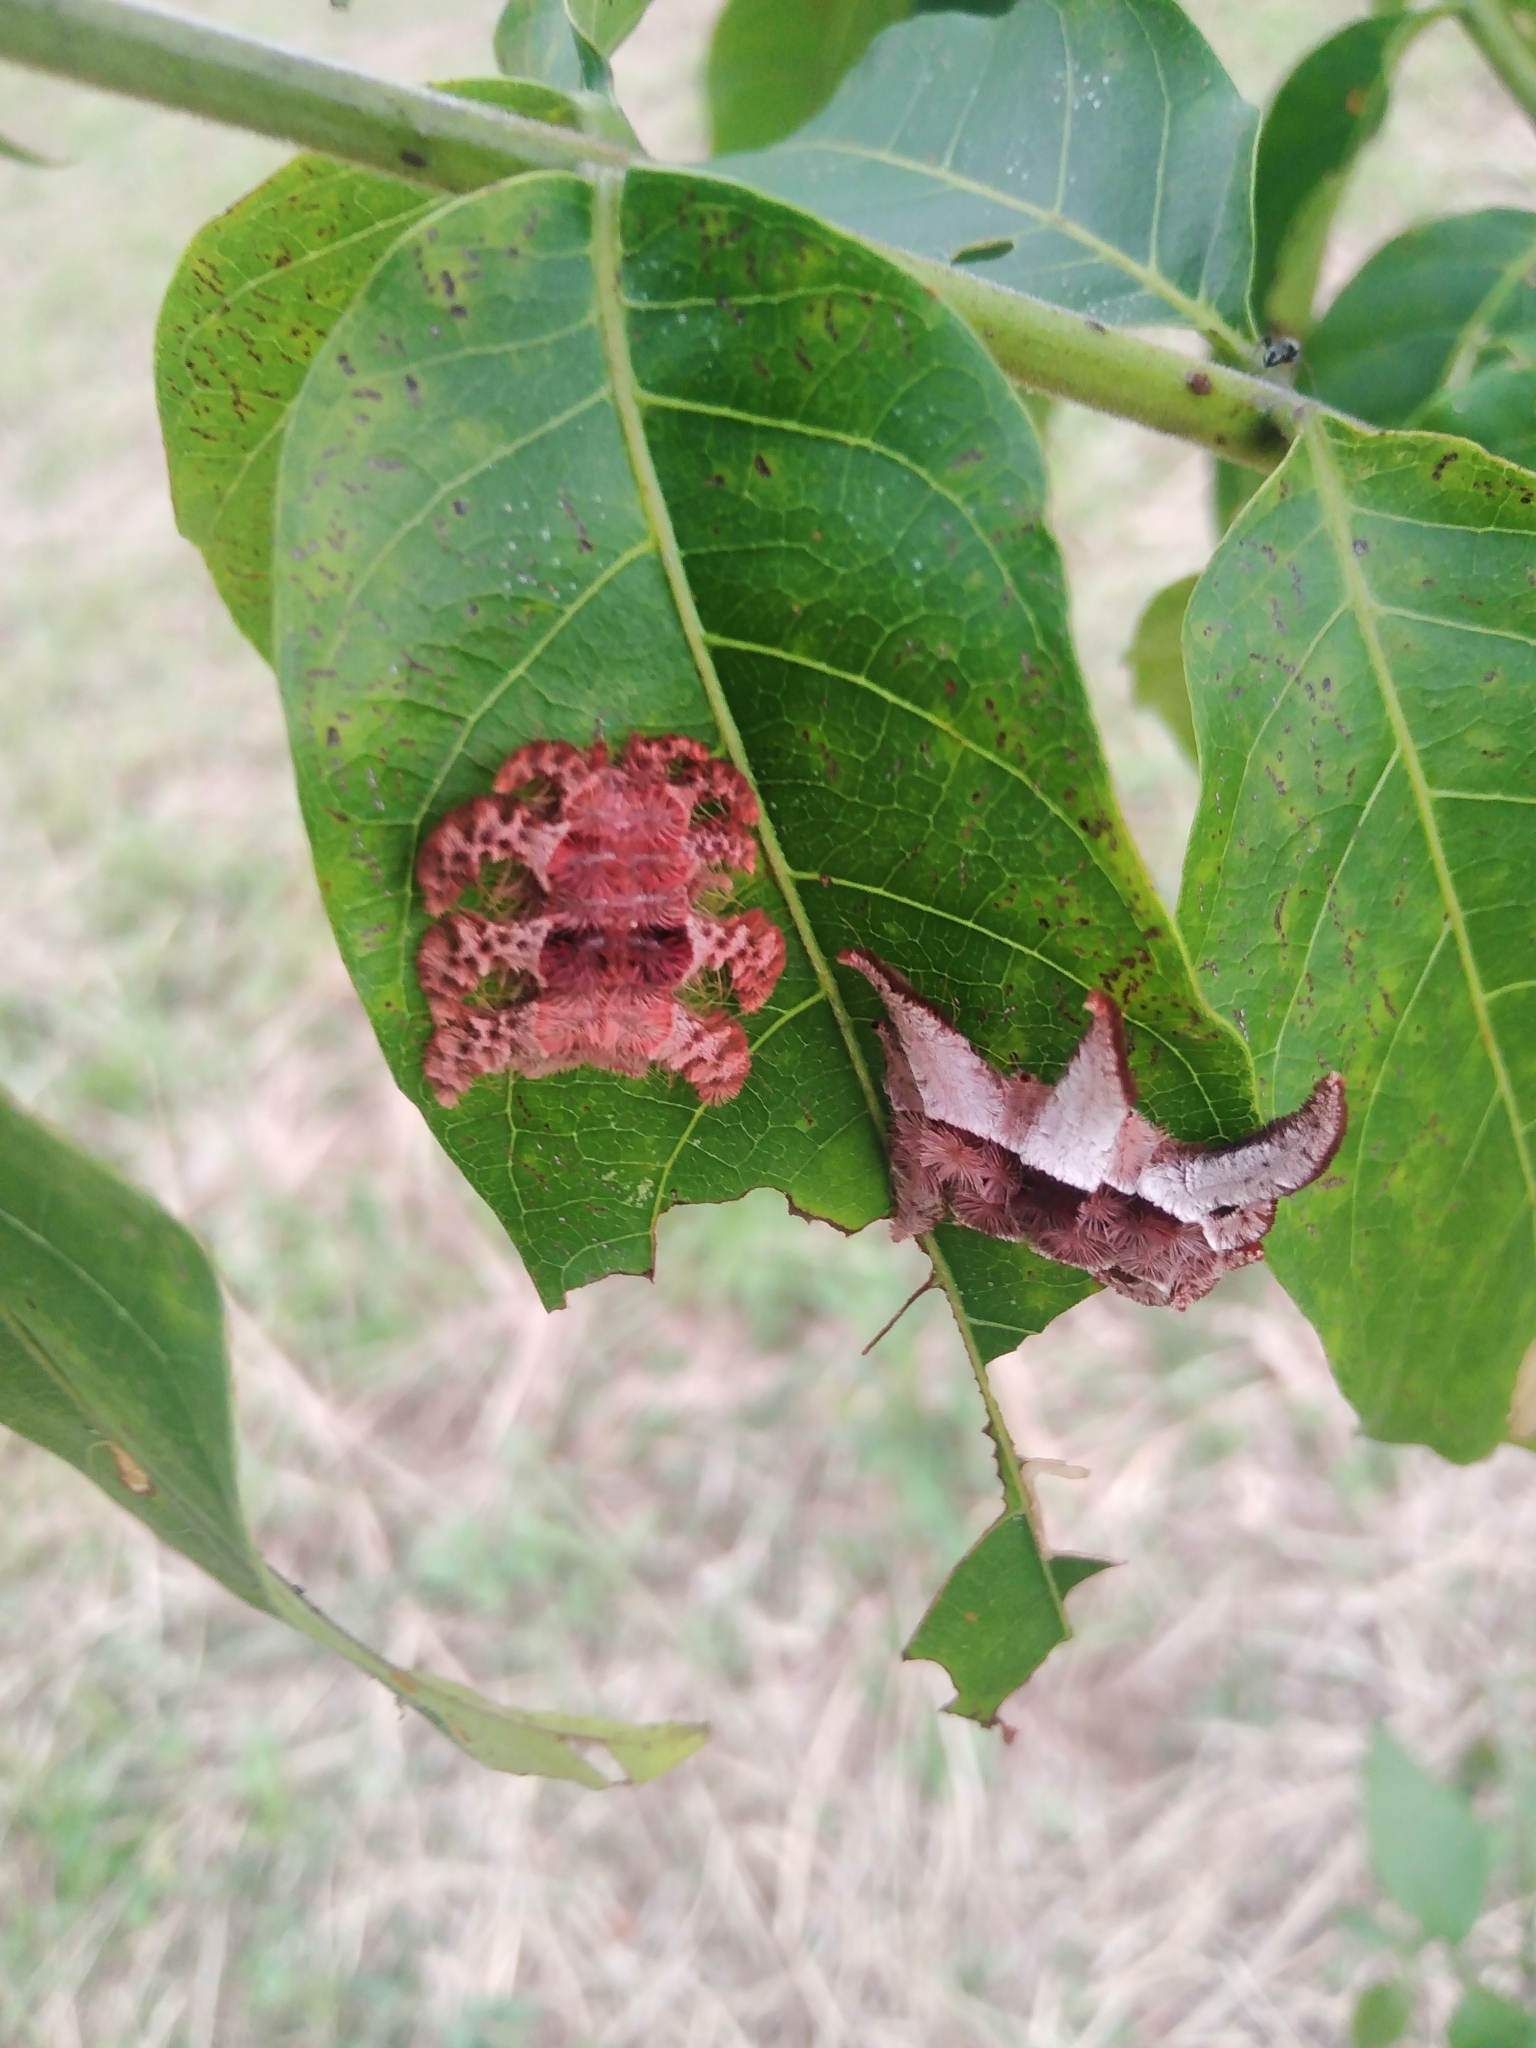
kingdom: Animalia
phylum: Arthropoda
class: Insecta
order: Lepidoptera
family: Limacodidae
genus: Phobetron
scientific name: Phobetron hipparchia
